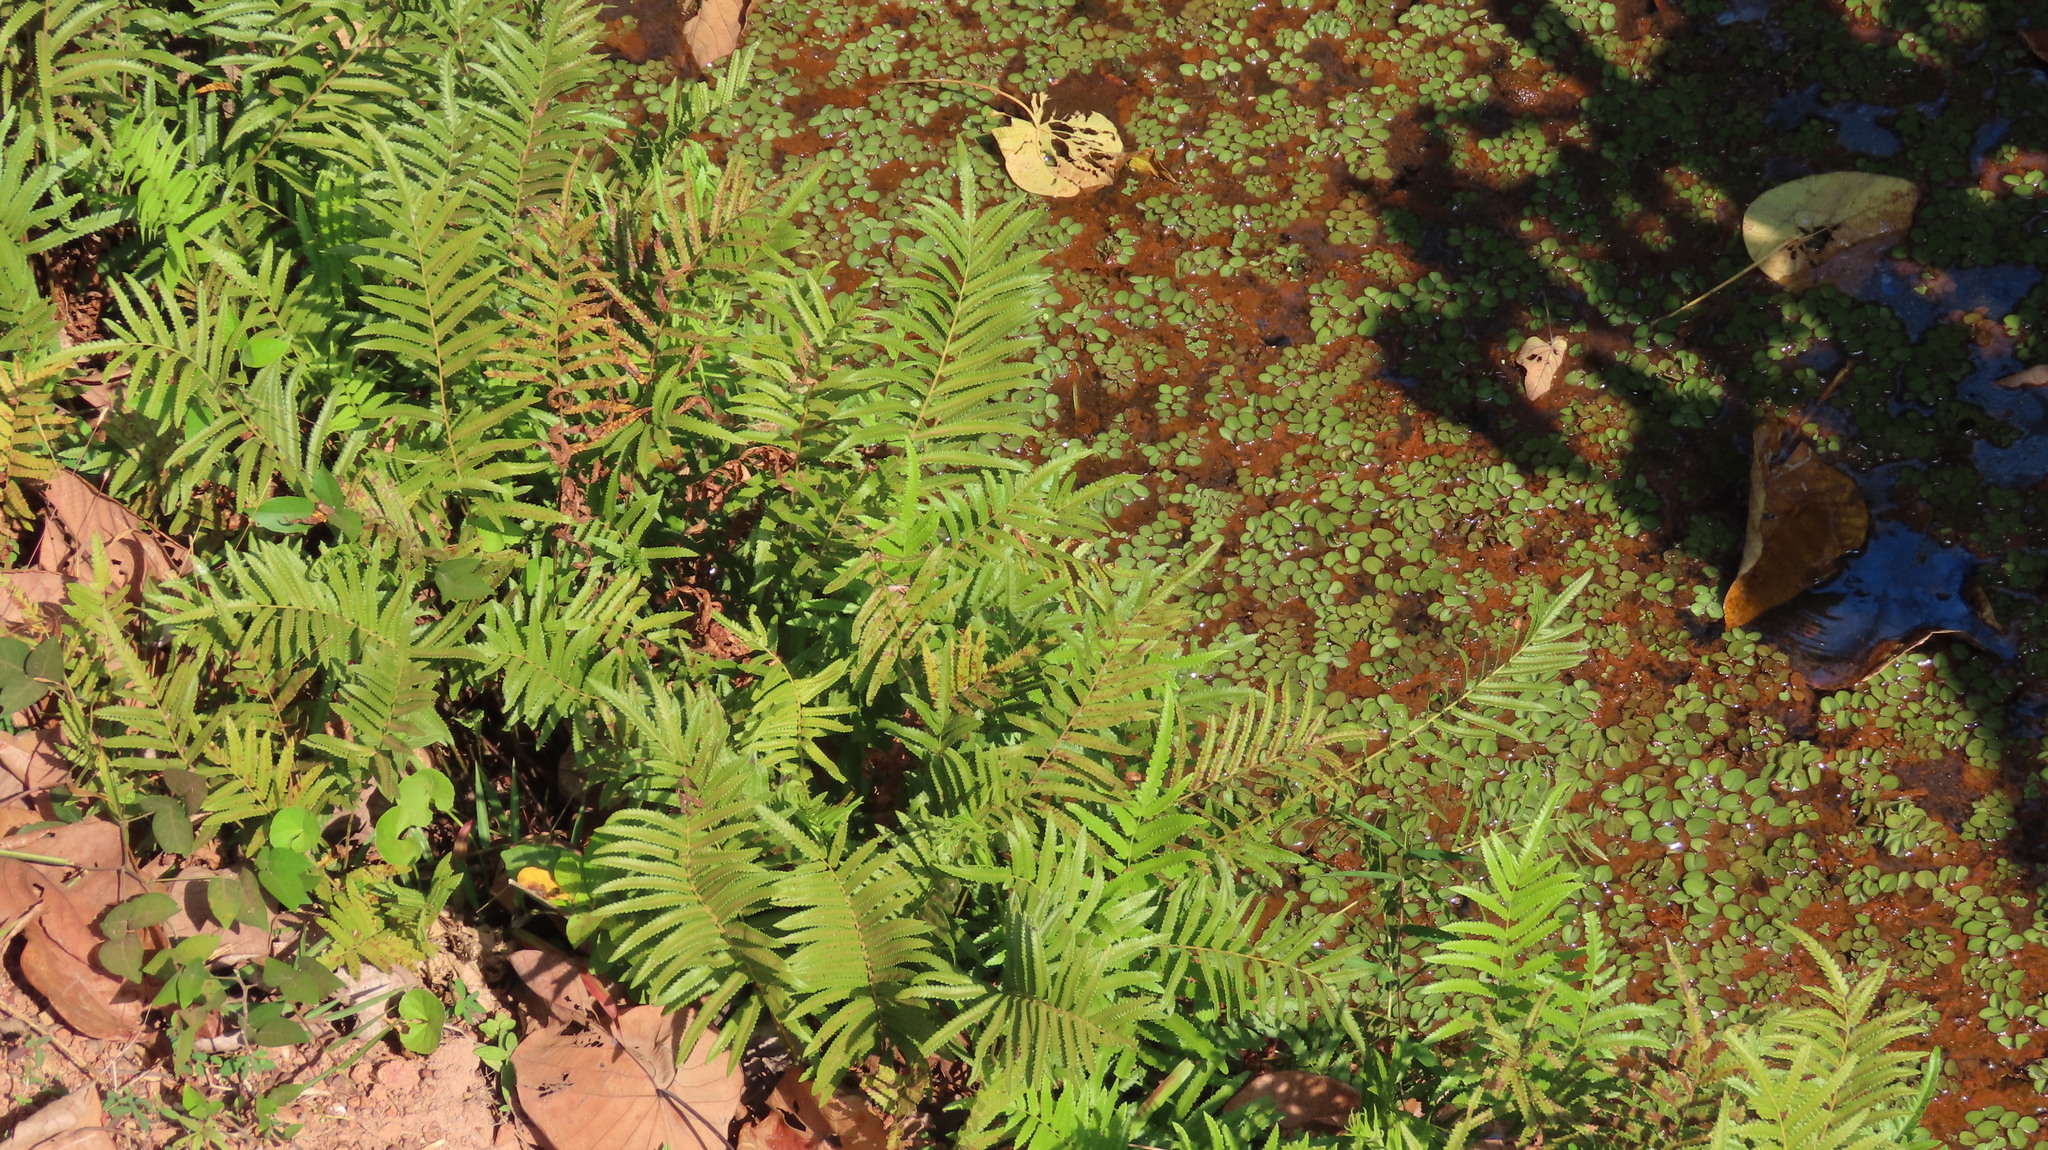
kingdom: Plantae
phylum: Tracheophyta
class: Polypodiopsida
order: Polypodiales
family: Thelypteridaceae
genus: Cyclosorus
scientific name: Cyclosorus interruptus
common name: Neke fern
